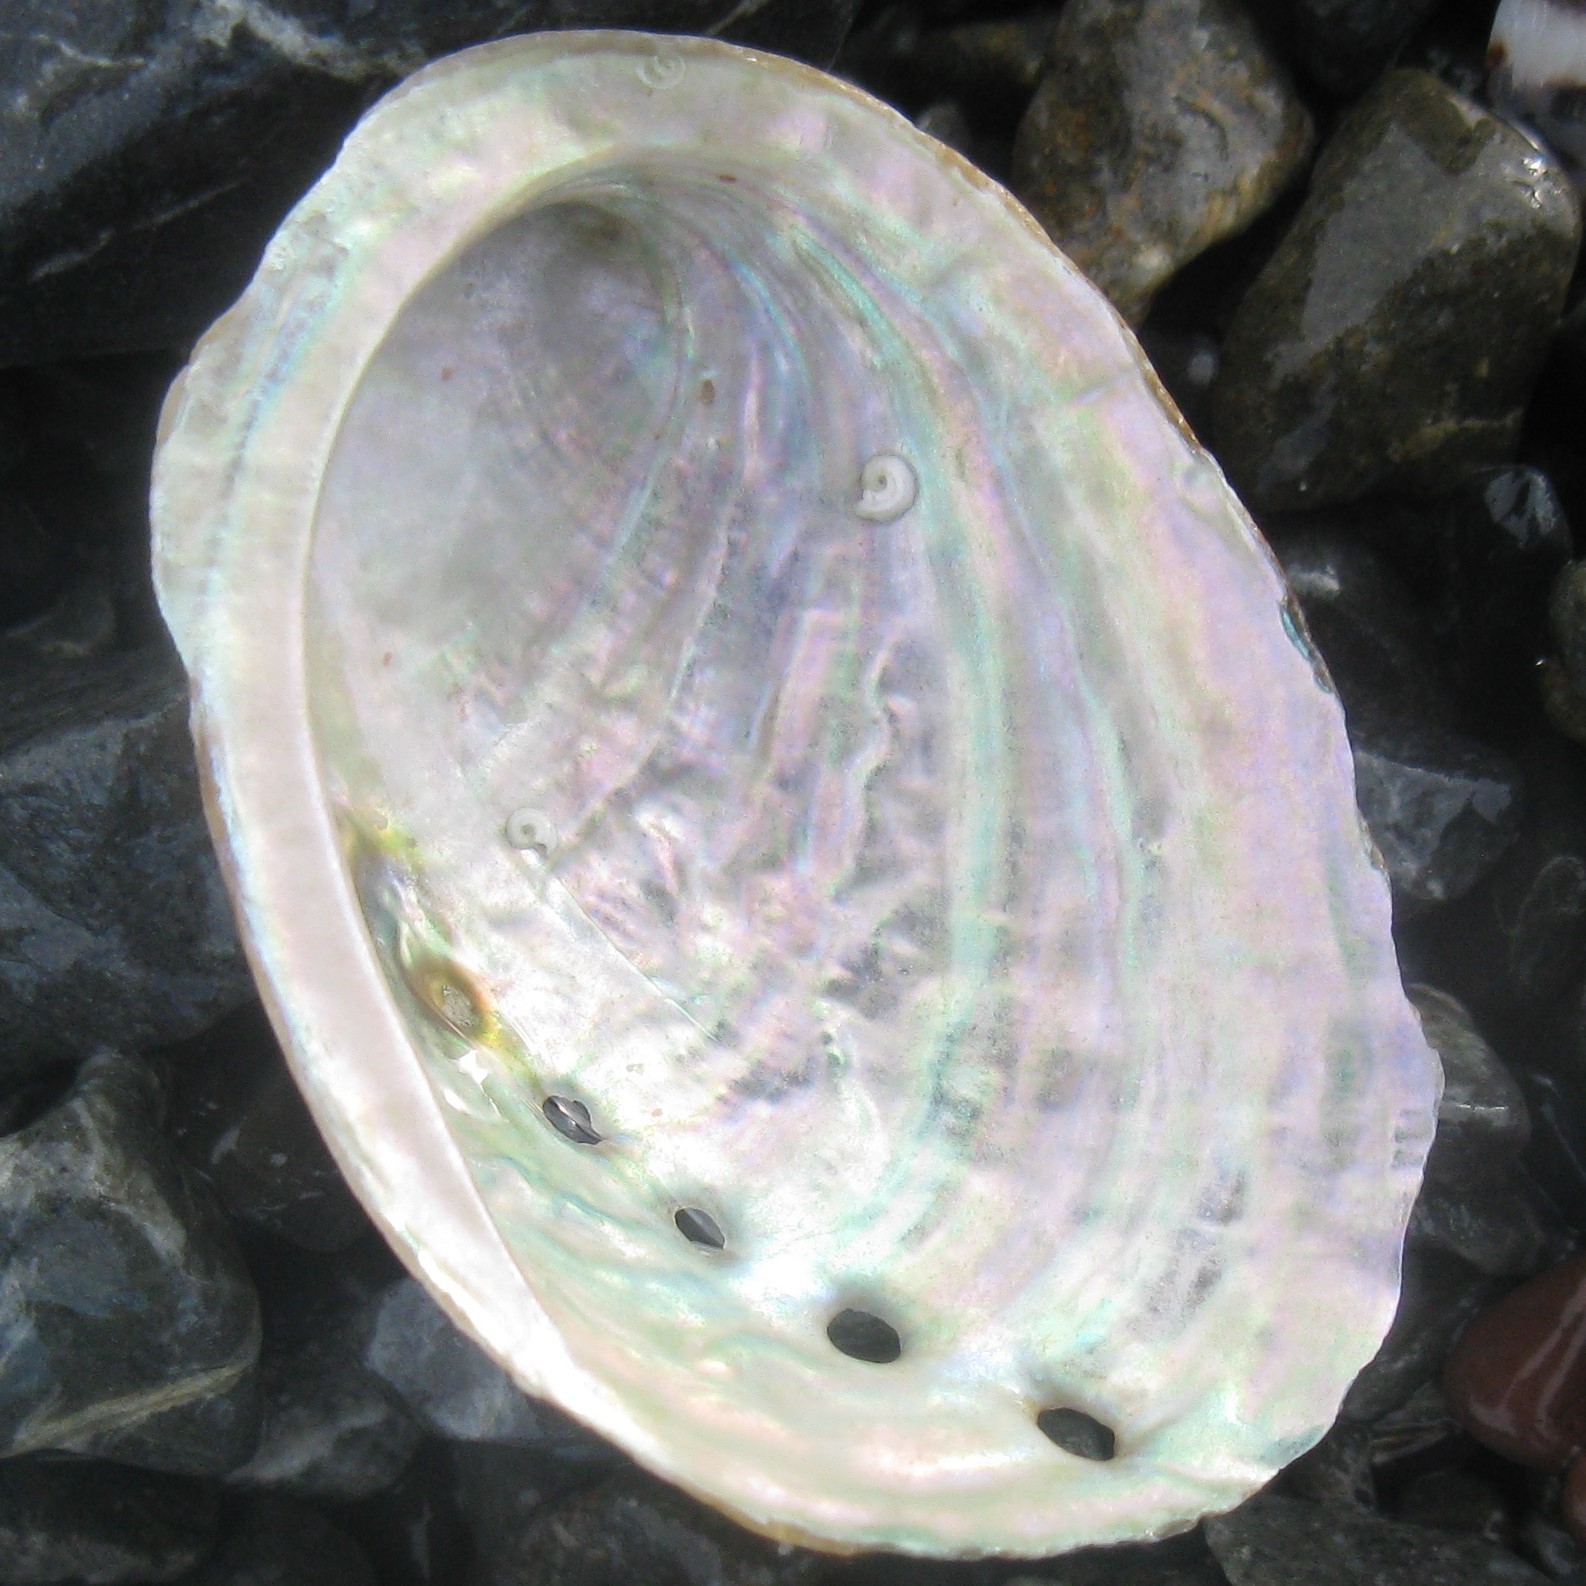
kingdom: Animalia
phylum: Mollusca
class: Gastropoda
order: Lepetellida
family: Haliotidae
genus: Haliotis
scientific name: Haliotis iris
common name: Abalone
